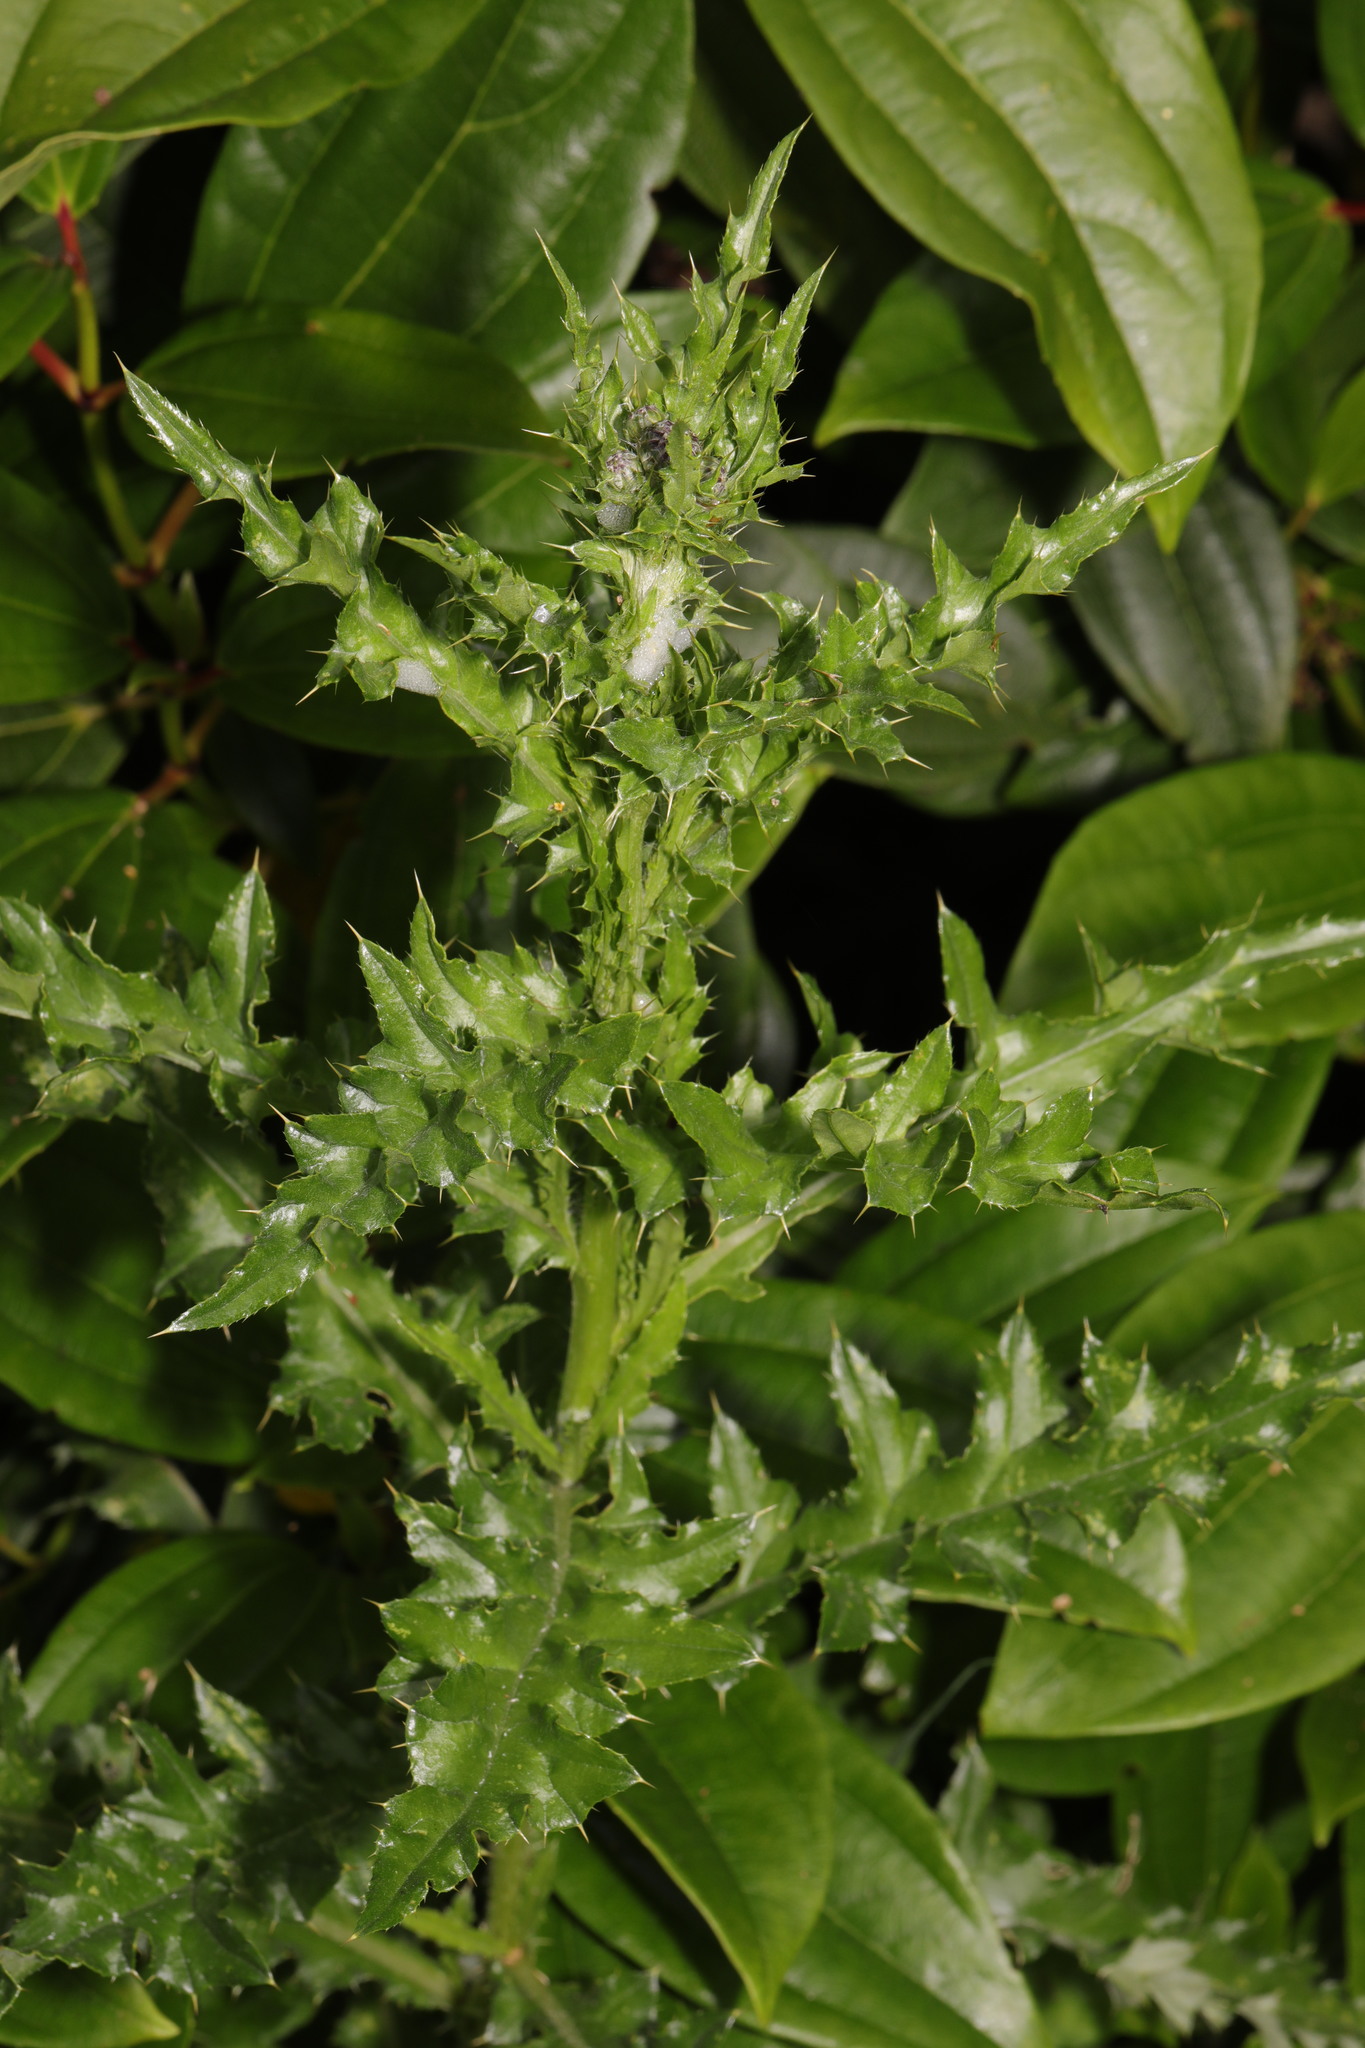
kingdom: Plantae
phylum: Tracheophyta
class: Magnoliopsida
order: Asterales
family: Asteraceae
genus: Cirsium
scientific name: Cirsium arvense
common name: Creeping thistle
